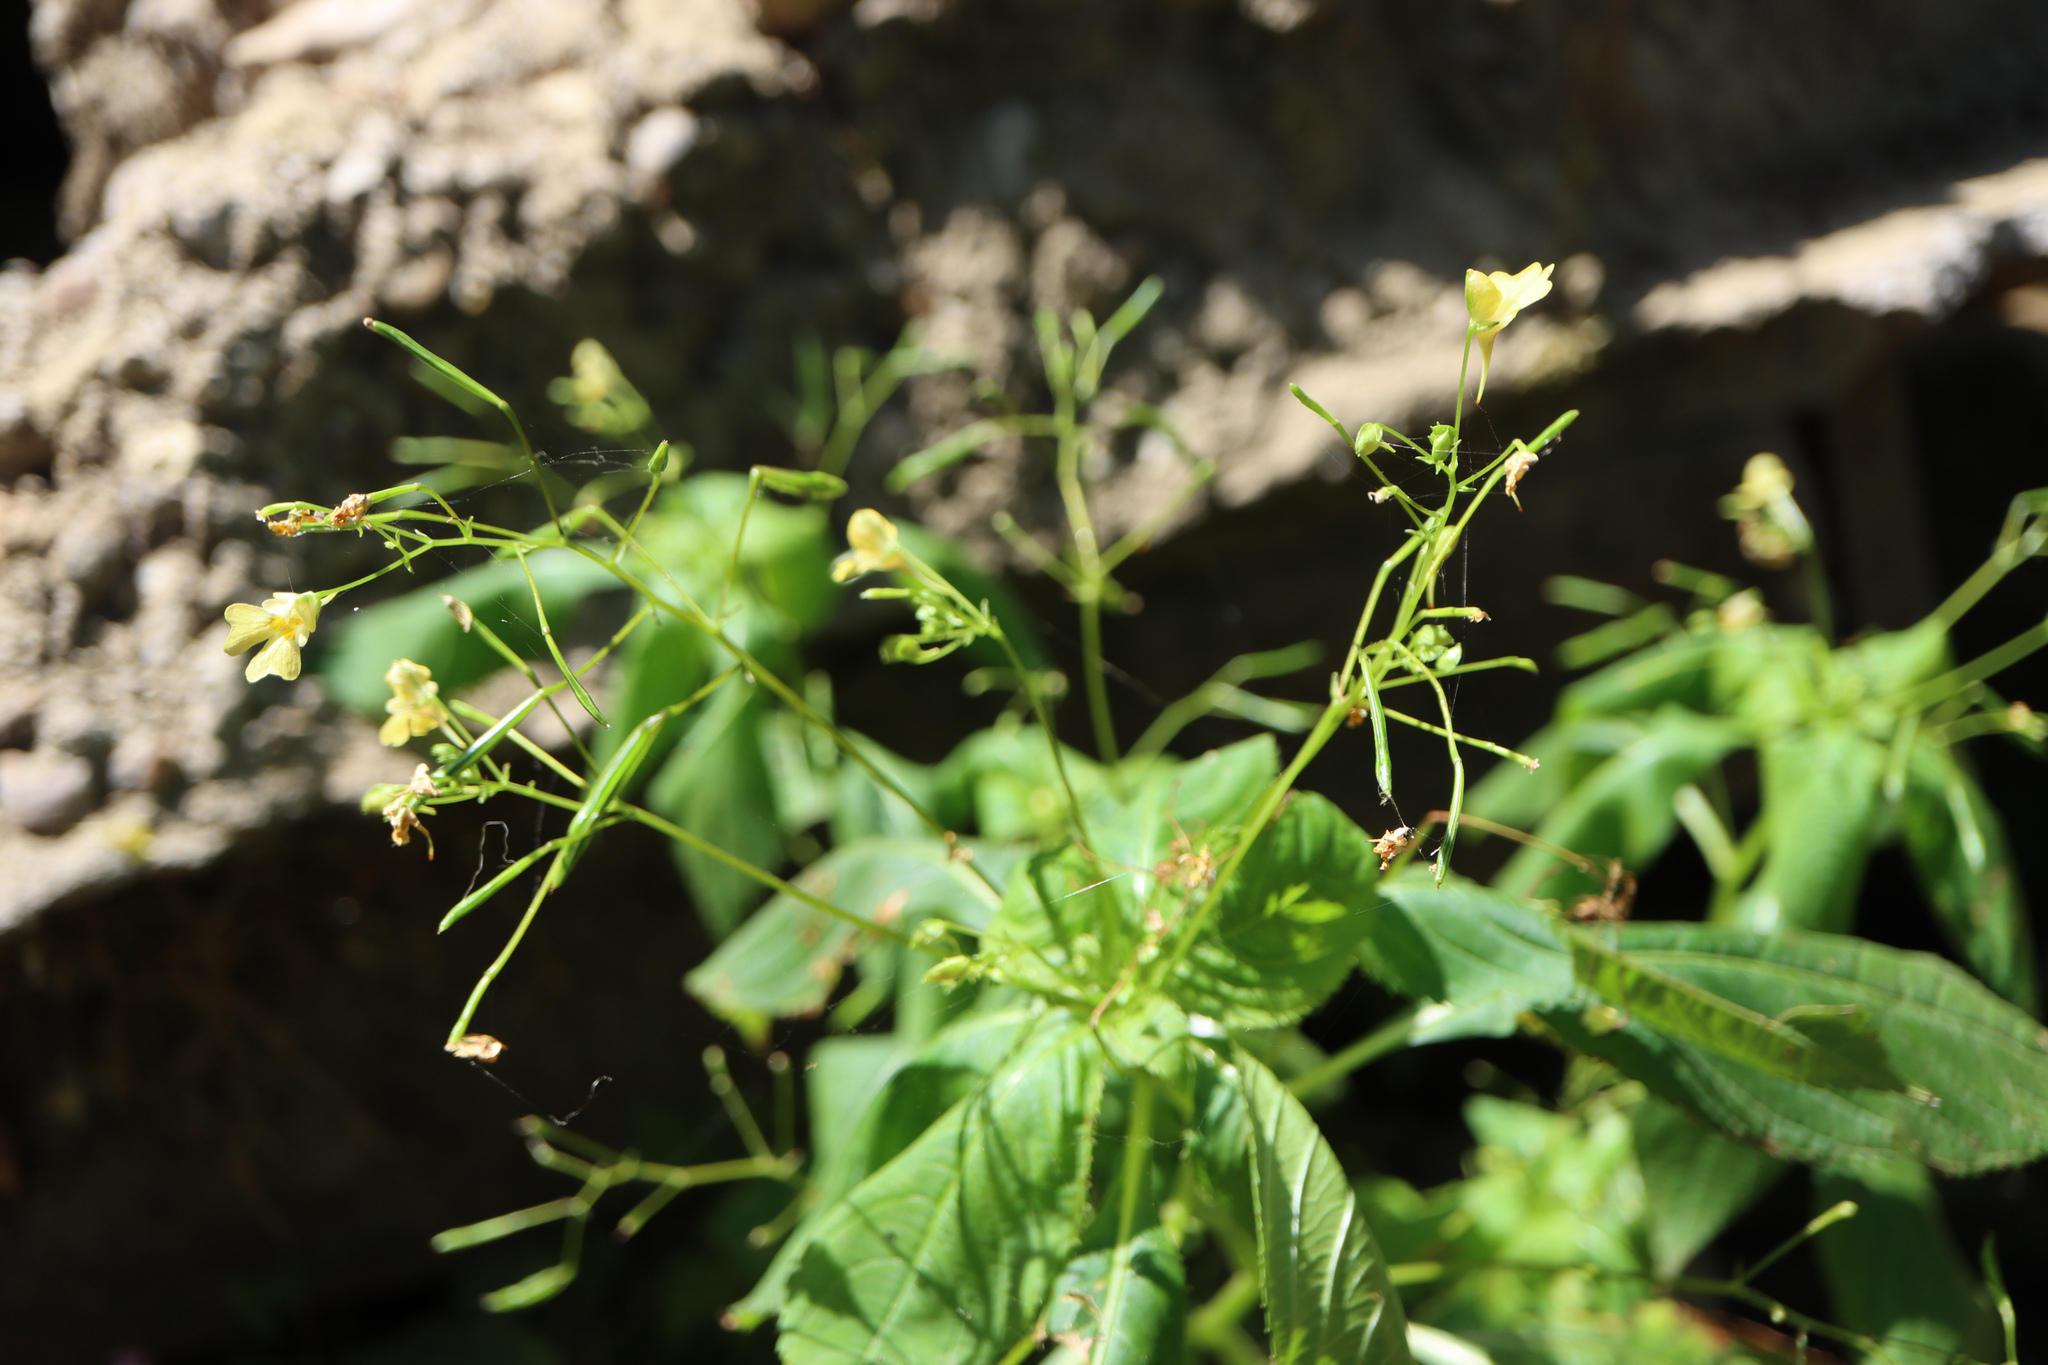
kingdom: Plantae
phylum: Tracheophyta
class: Magnoliopsida
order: Ericales
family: Balsaminaceae
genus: Impatiens
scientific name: Impatiens parviflora
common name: Small balsam
